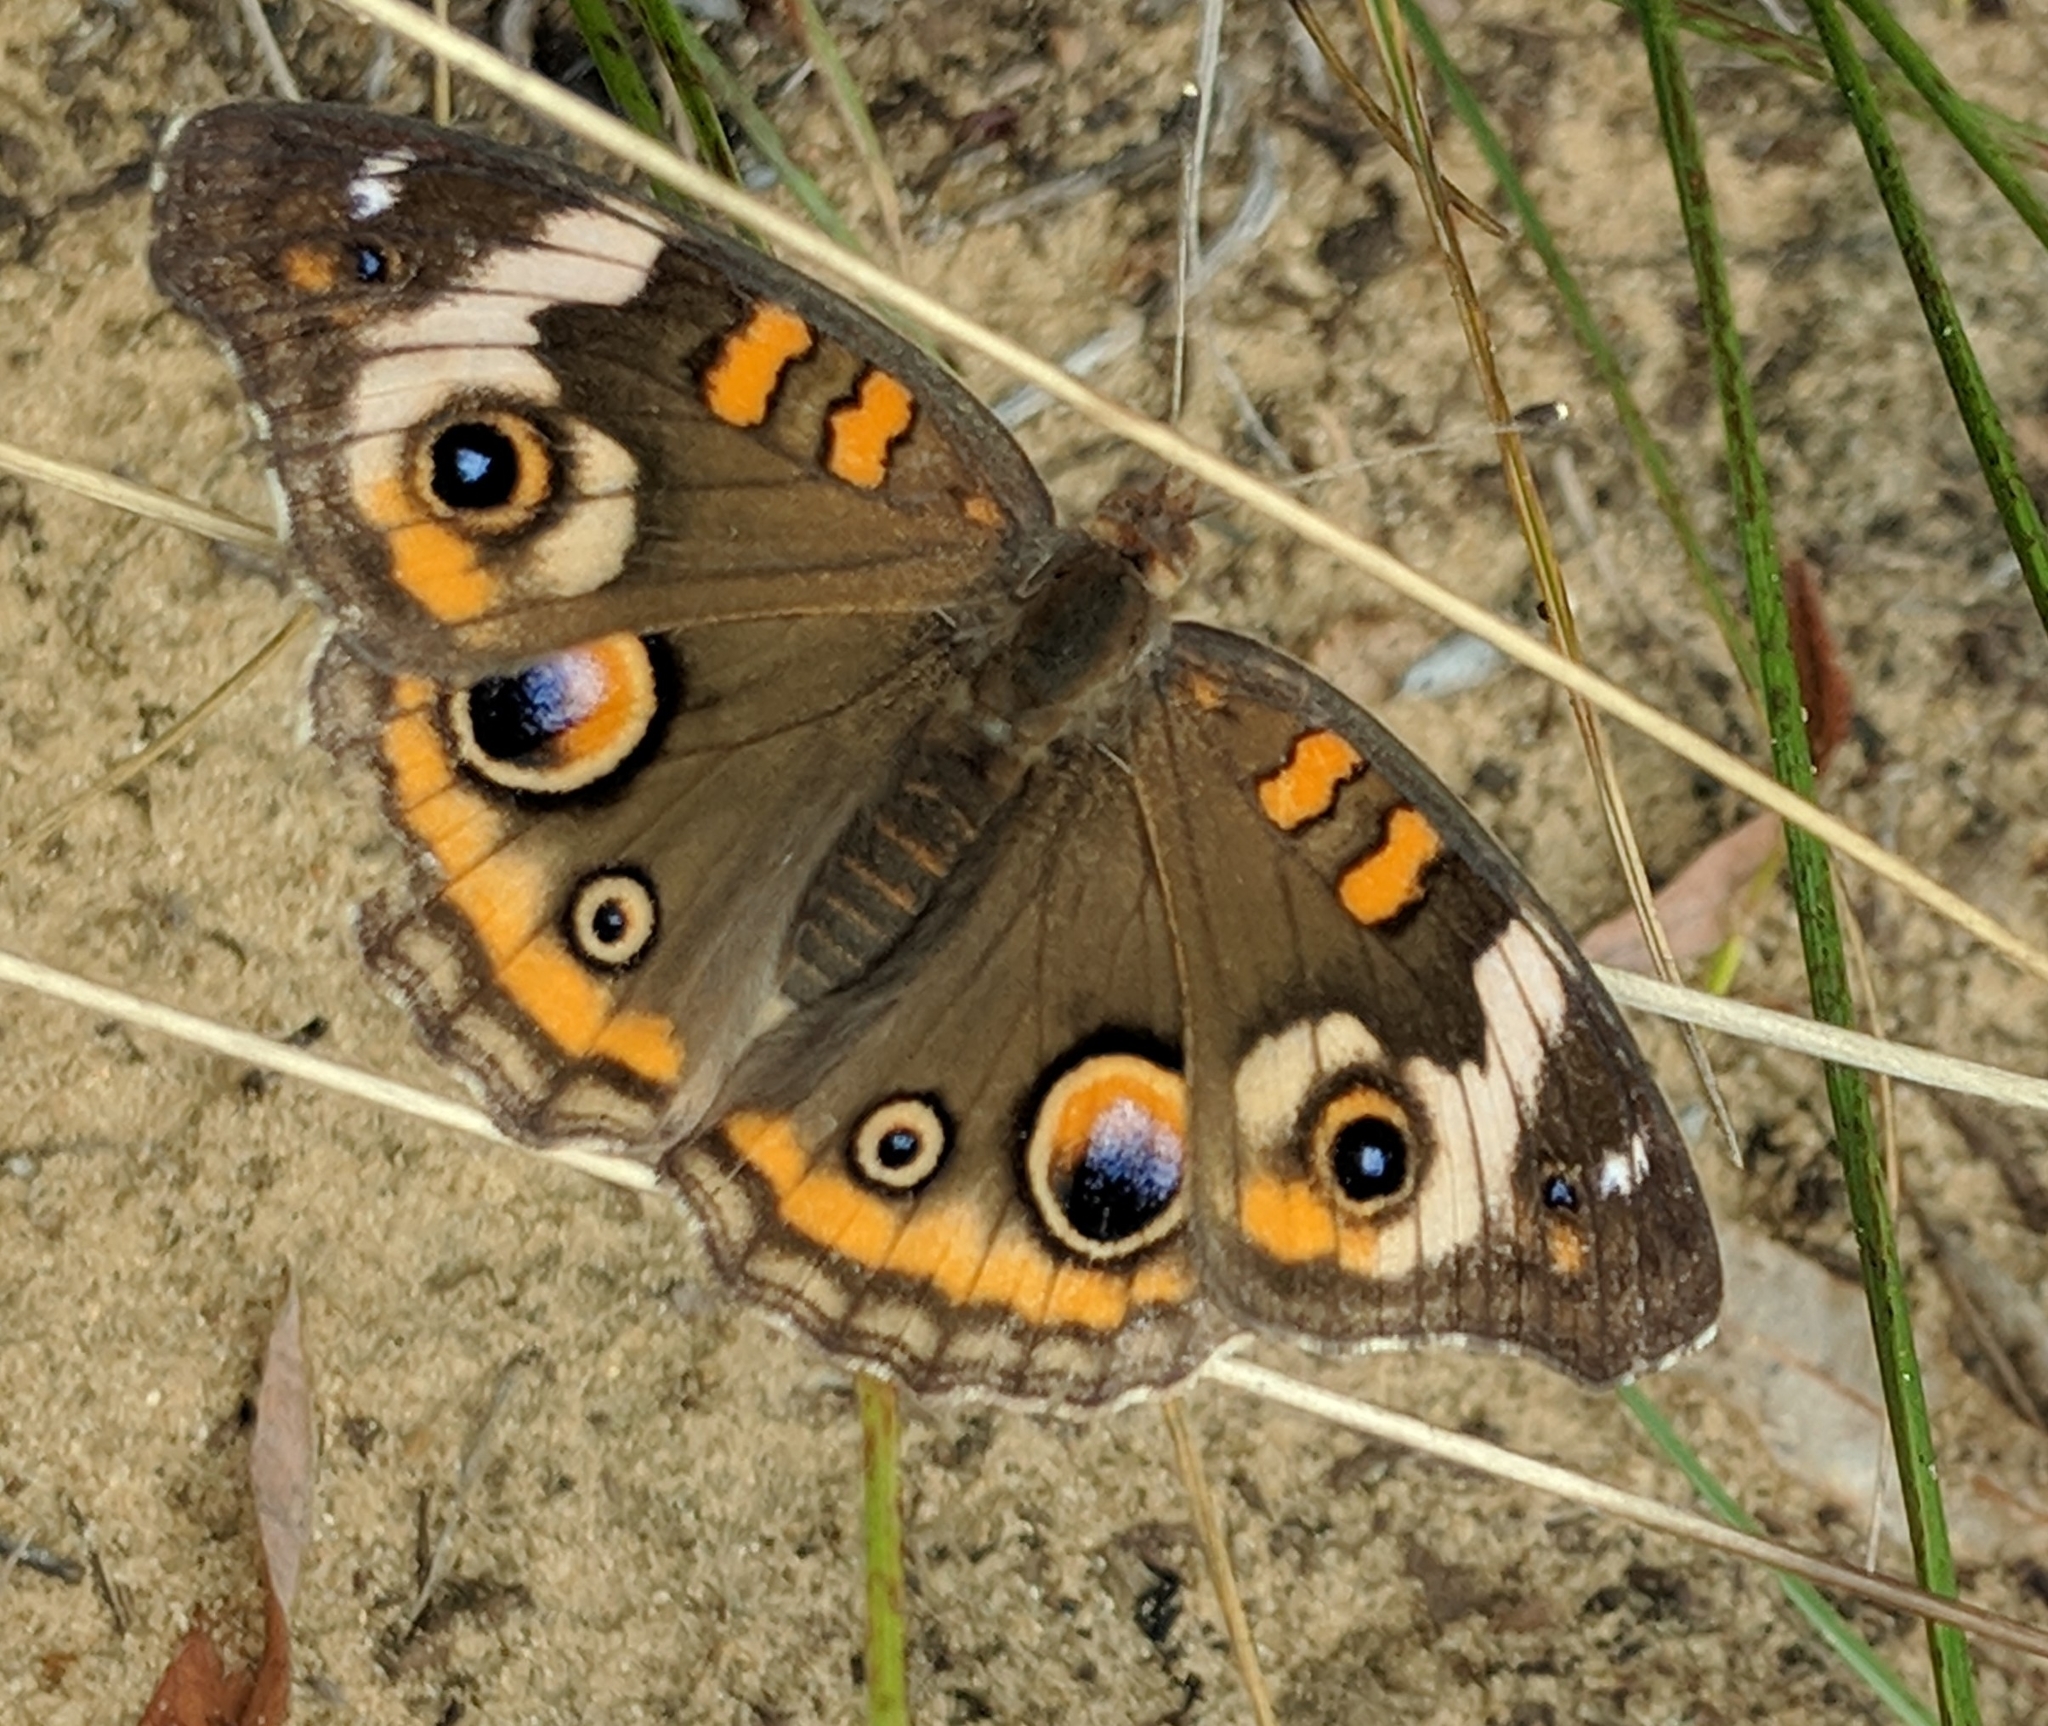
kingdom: Animalia
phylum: Arthropoda
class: Insecta
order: Lepidoptera
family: Nymphalidae
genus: Junonia
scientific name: Junonia coenia
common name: Common buckeye
